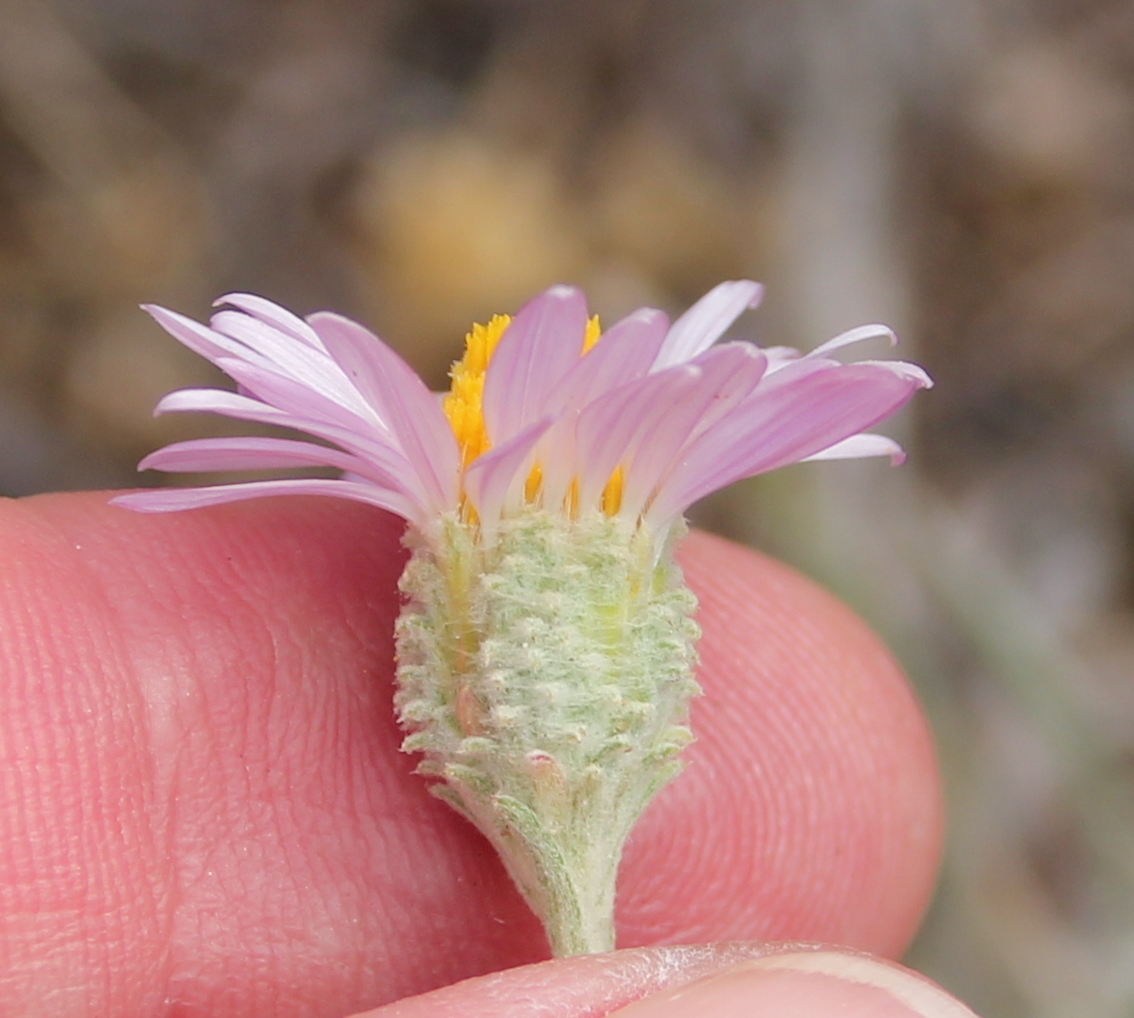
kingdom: Plantae
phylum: Tracheophyta
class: Magnoliopsida
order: Asterales
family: Asteraceae
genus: Corethrogyne
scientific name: Corethrogyne filaginifolia
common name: Sand-aster
